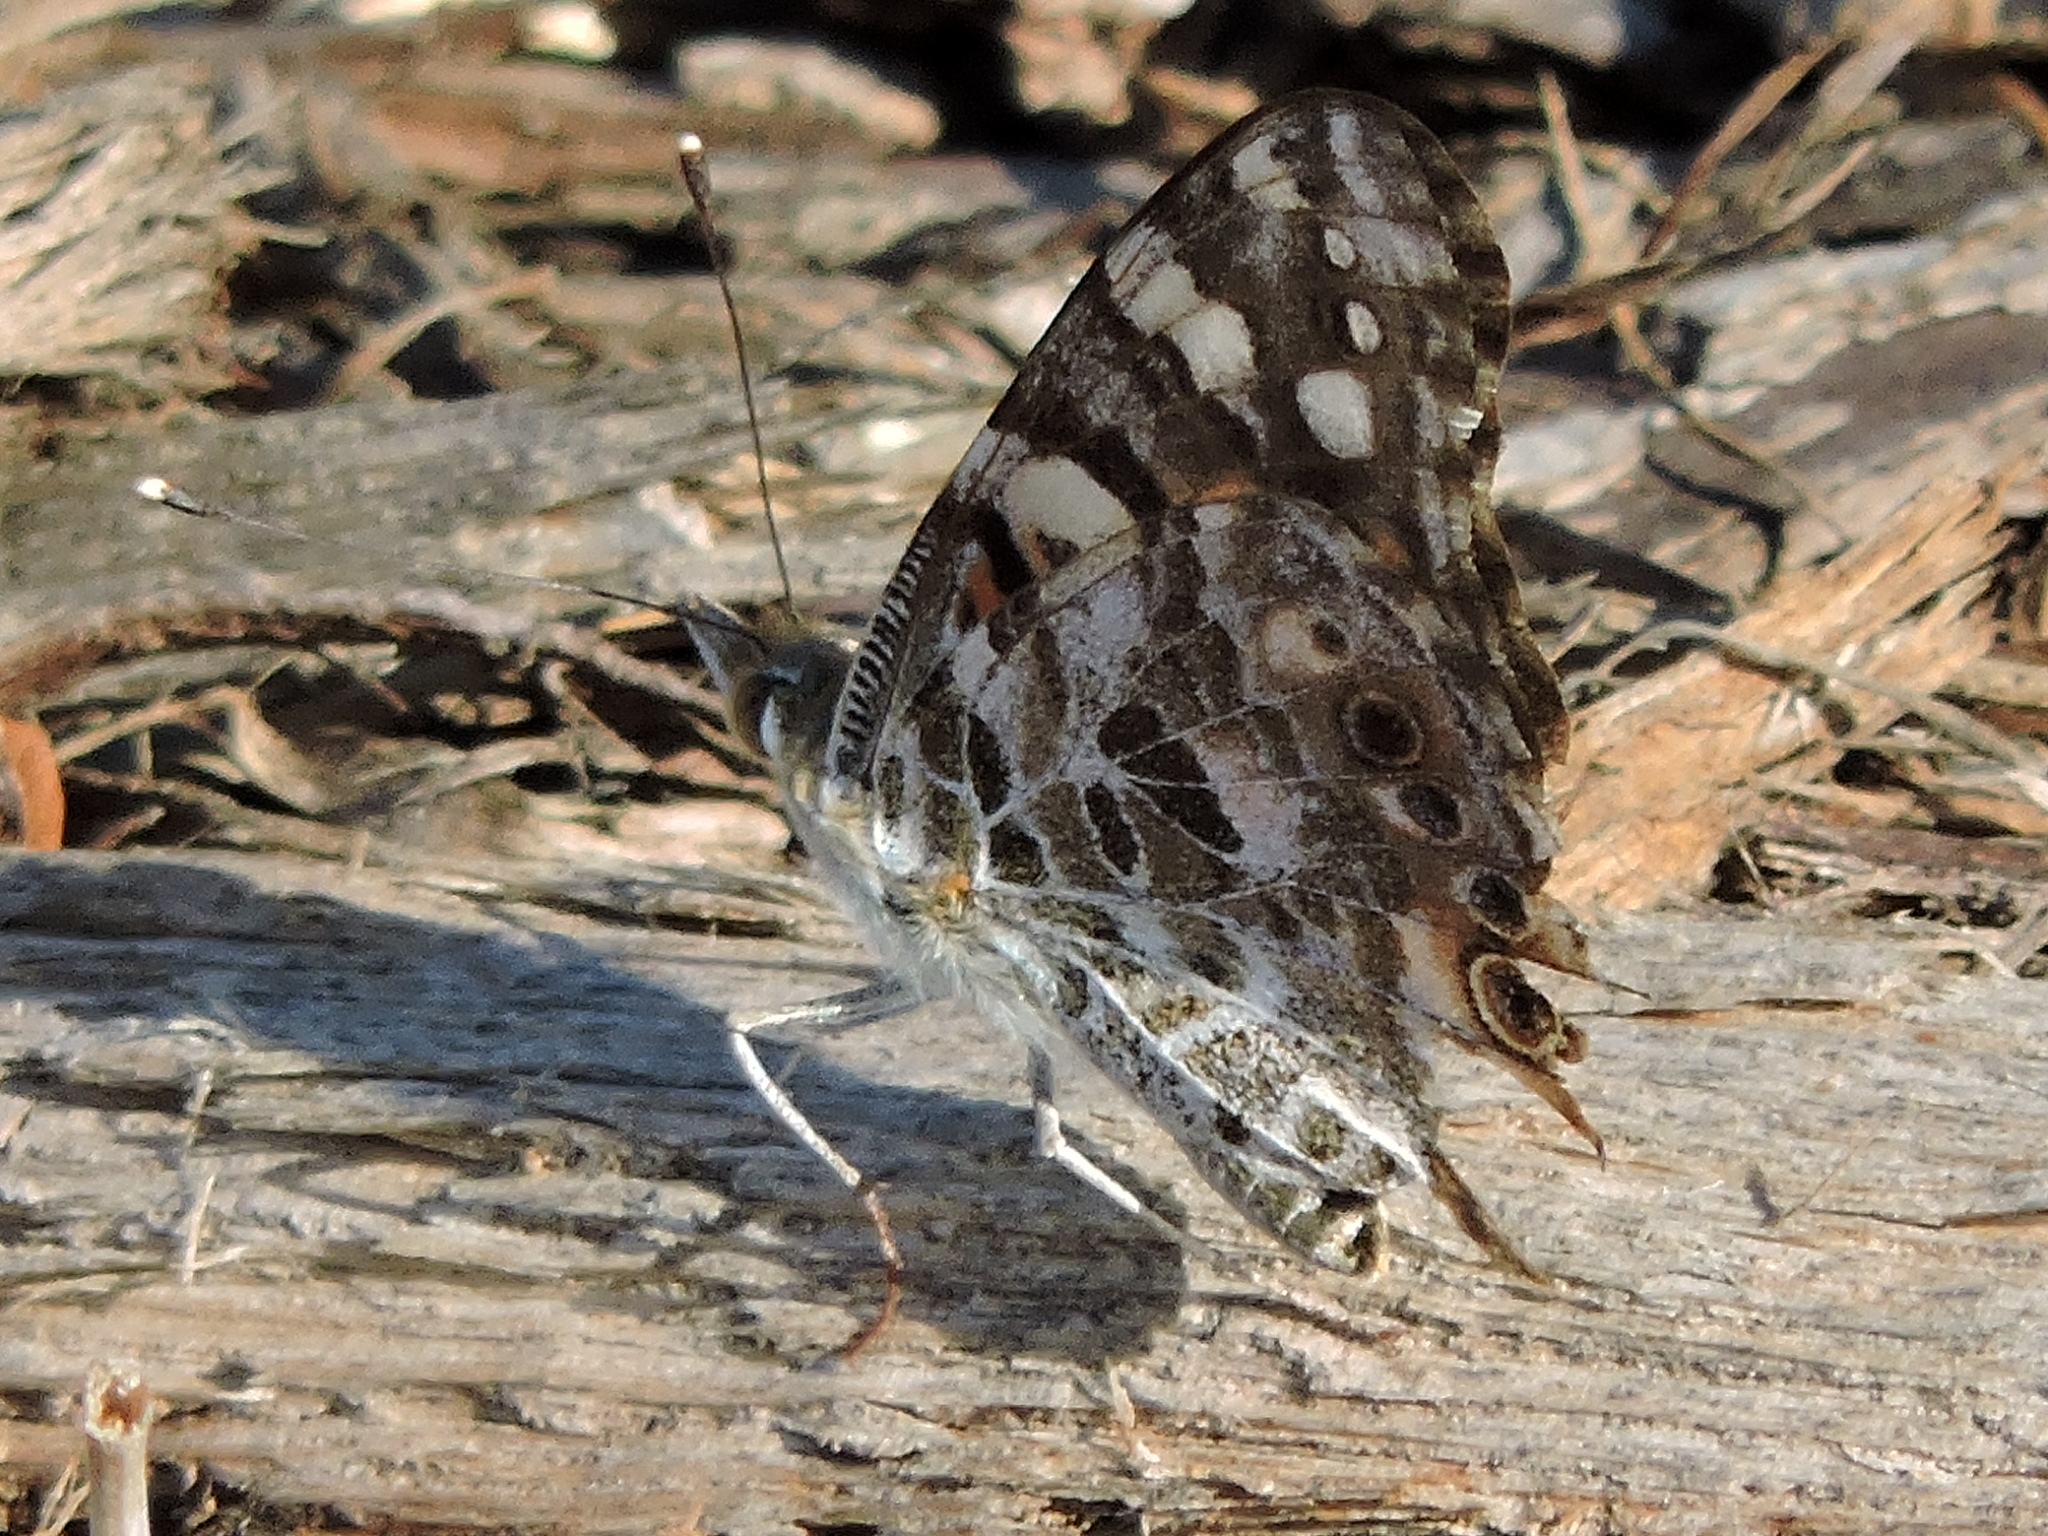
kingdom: Animalia
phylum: Arthropoda
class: Insecta
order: Lepidoptera
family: Nymphalidae
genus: Vanessa
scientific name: Vanessa cardui
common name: Painted lady
